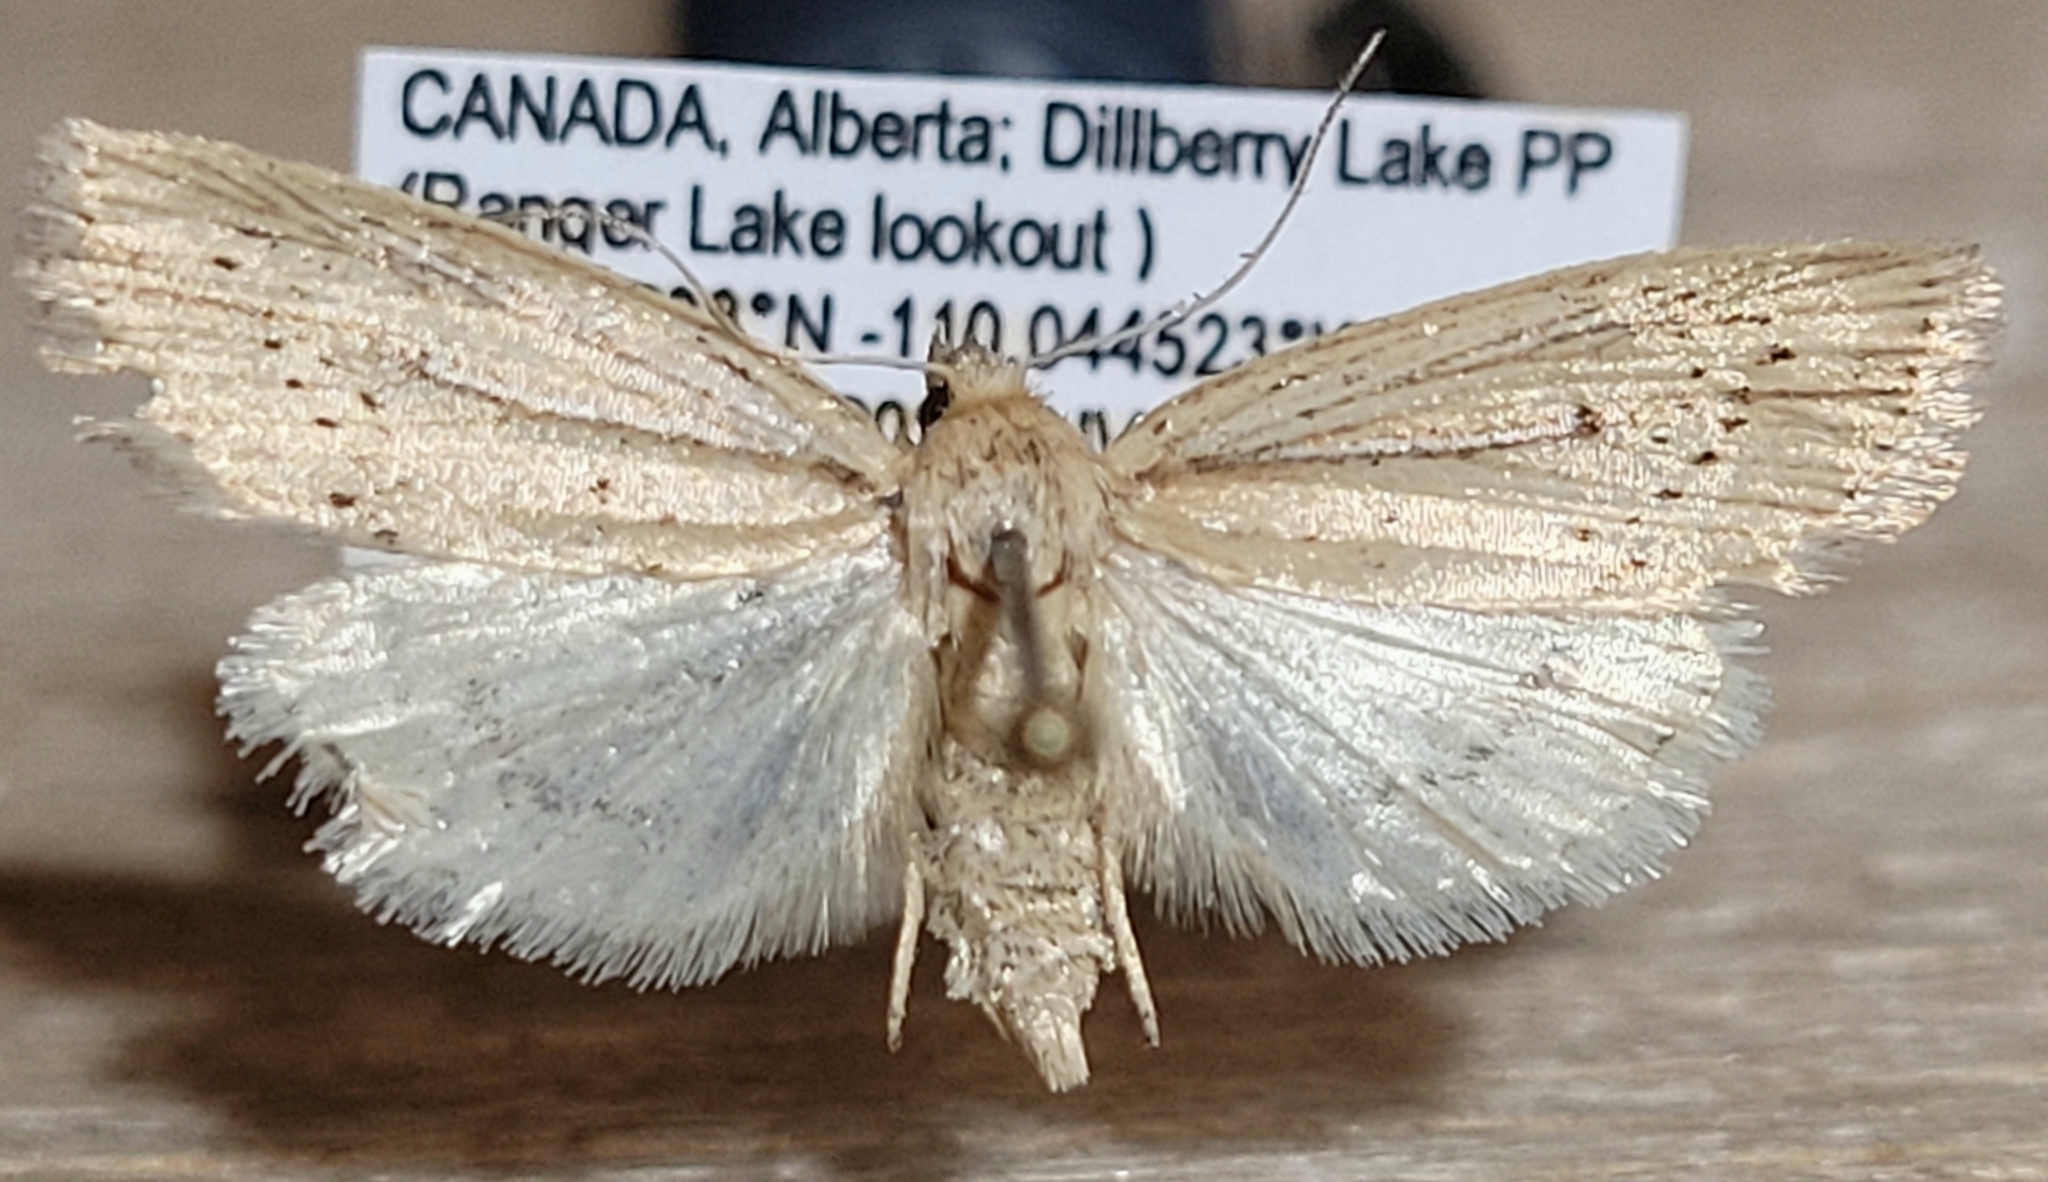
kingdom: Animalia
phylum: Arthropoda
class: Insecta
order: Lepidoptera
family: Noctuidae
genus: Photedes
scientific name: Photedes defecta
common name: Narrow-winged borer moth
